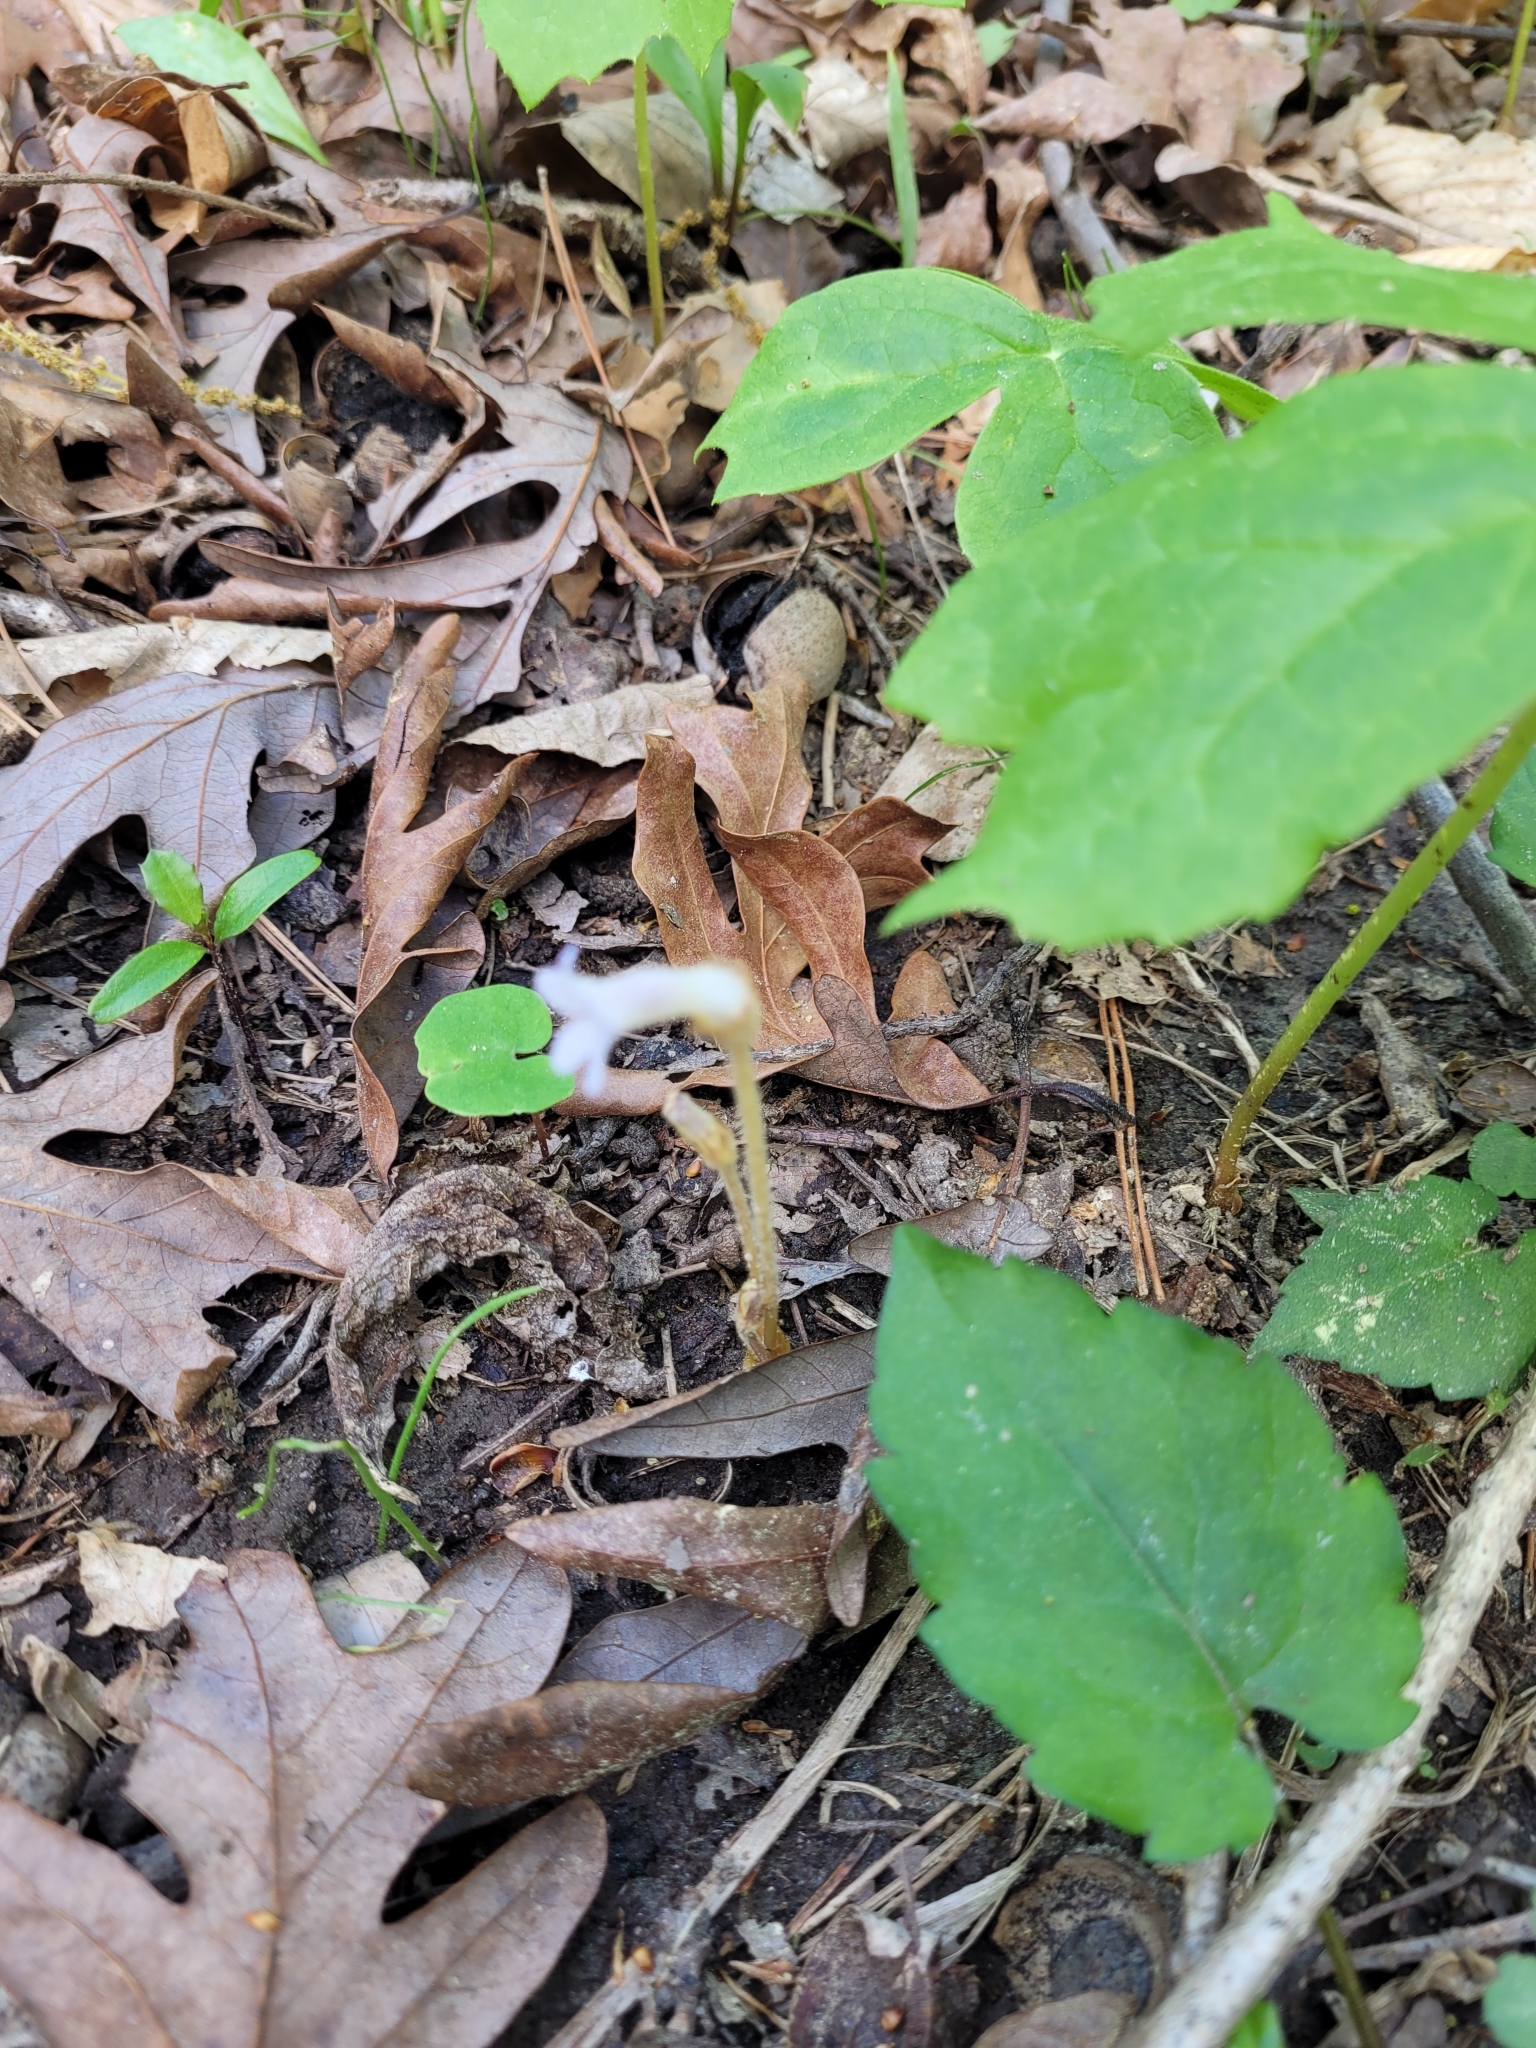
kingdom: Plantae
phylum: Tracheophyta
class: Magnoliopsida
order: Lamiales
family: Orobanchaceae
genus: Aphyllon
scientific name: Aphyllon uniflorum
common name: One-flowered broomrape
